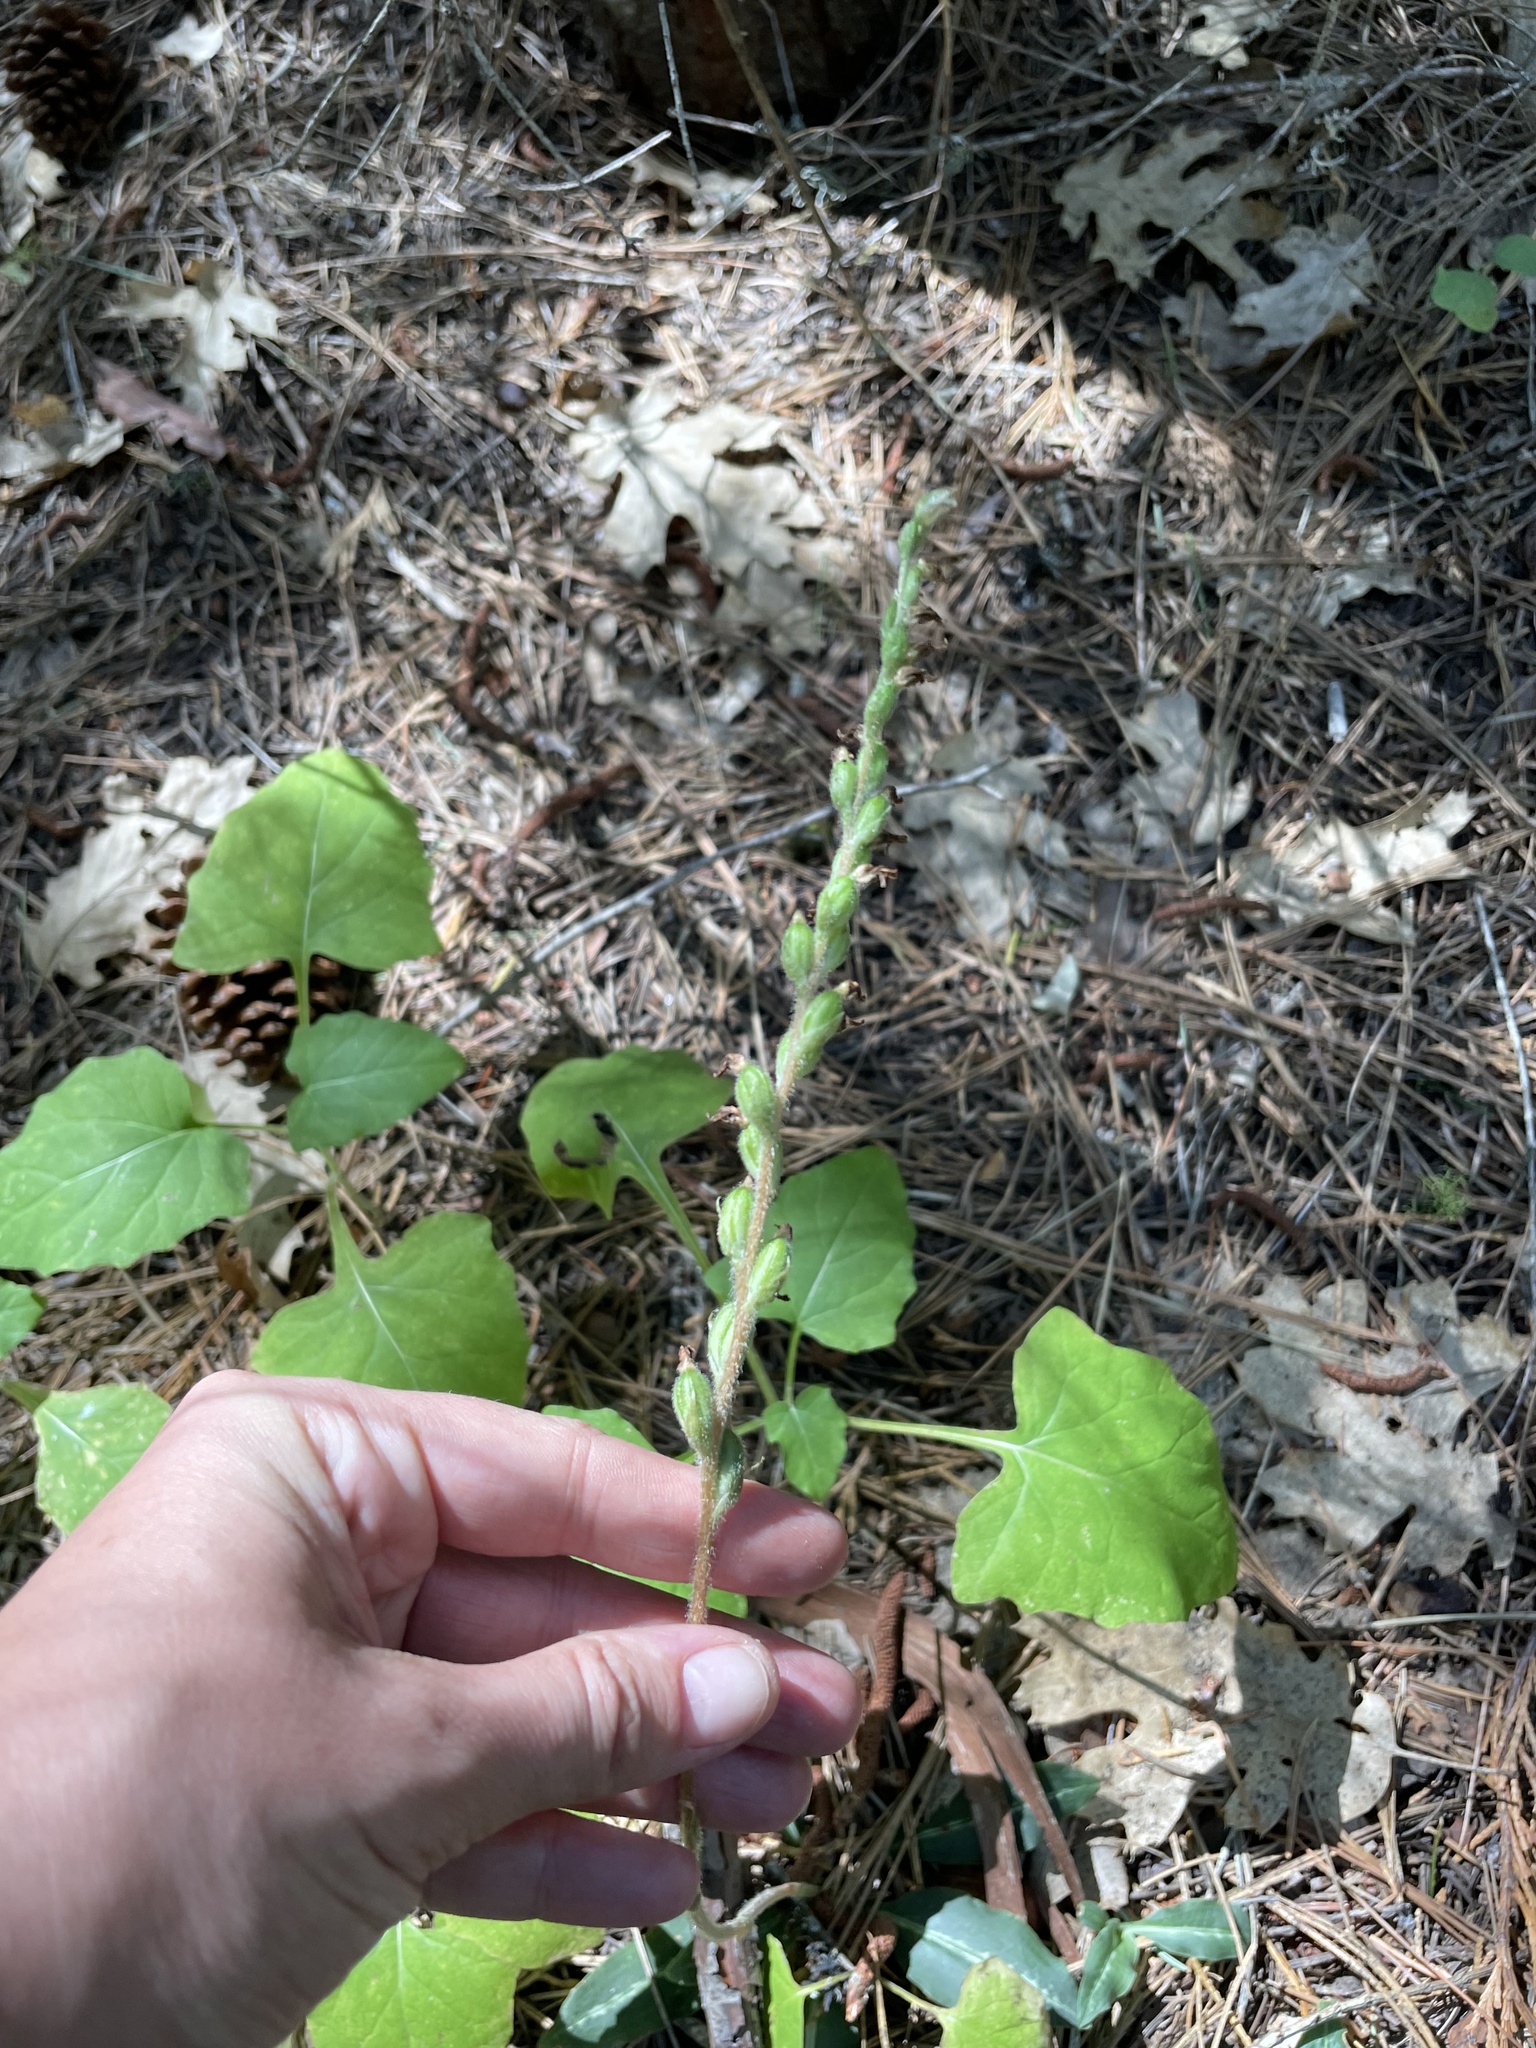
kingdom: Plantae
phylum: Tracheophyta
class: Liliopsida
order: Asparagales
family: Orchidaceae
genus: Goodyera
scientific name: Goodyera oblongifolia
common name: Giant rattlesnake-plantain
